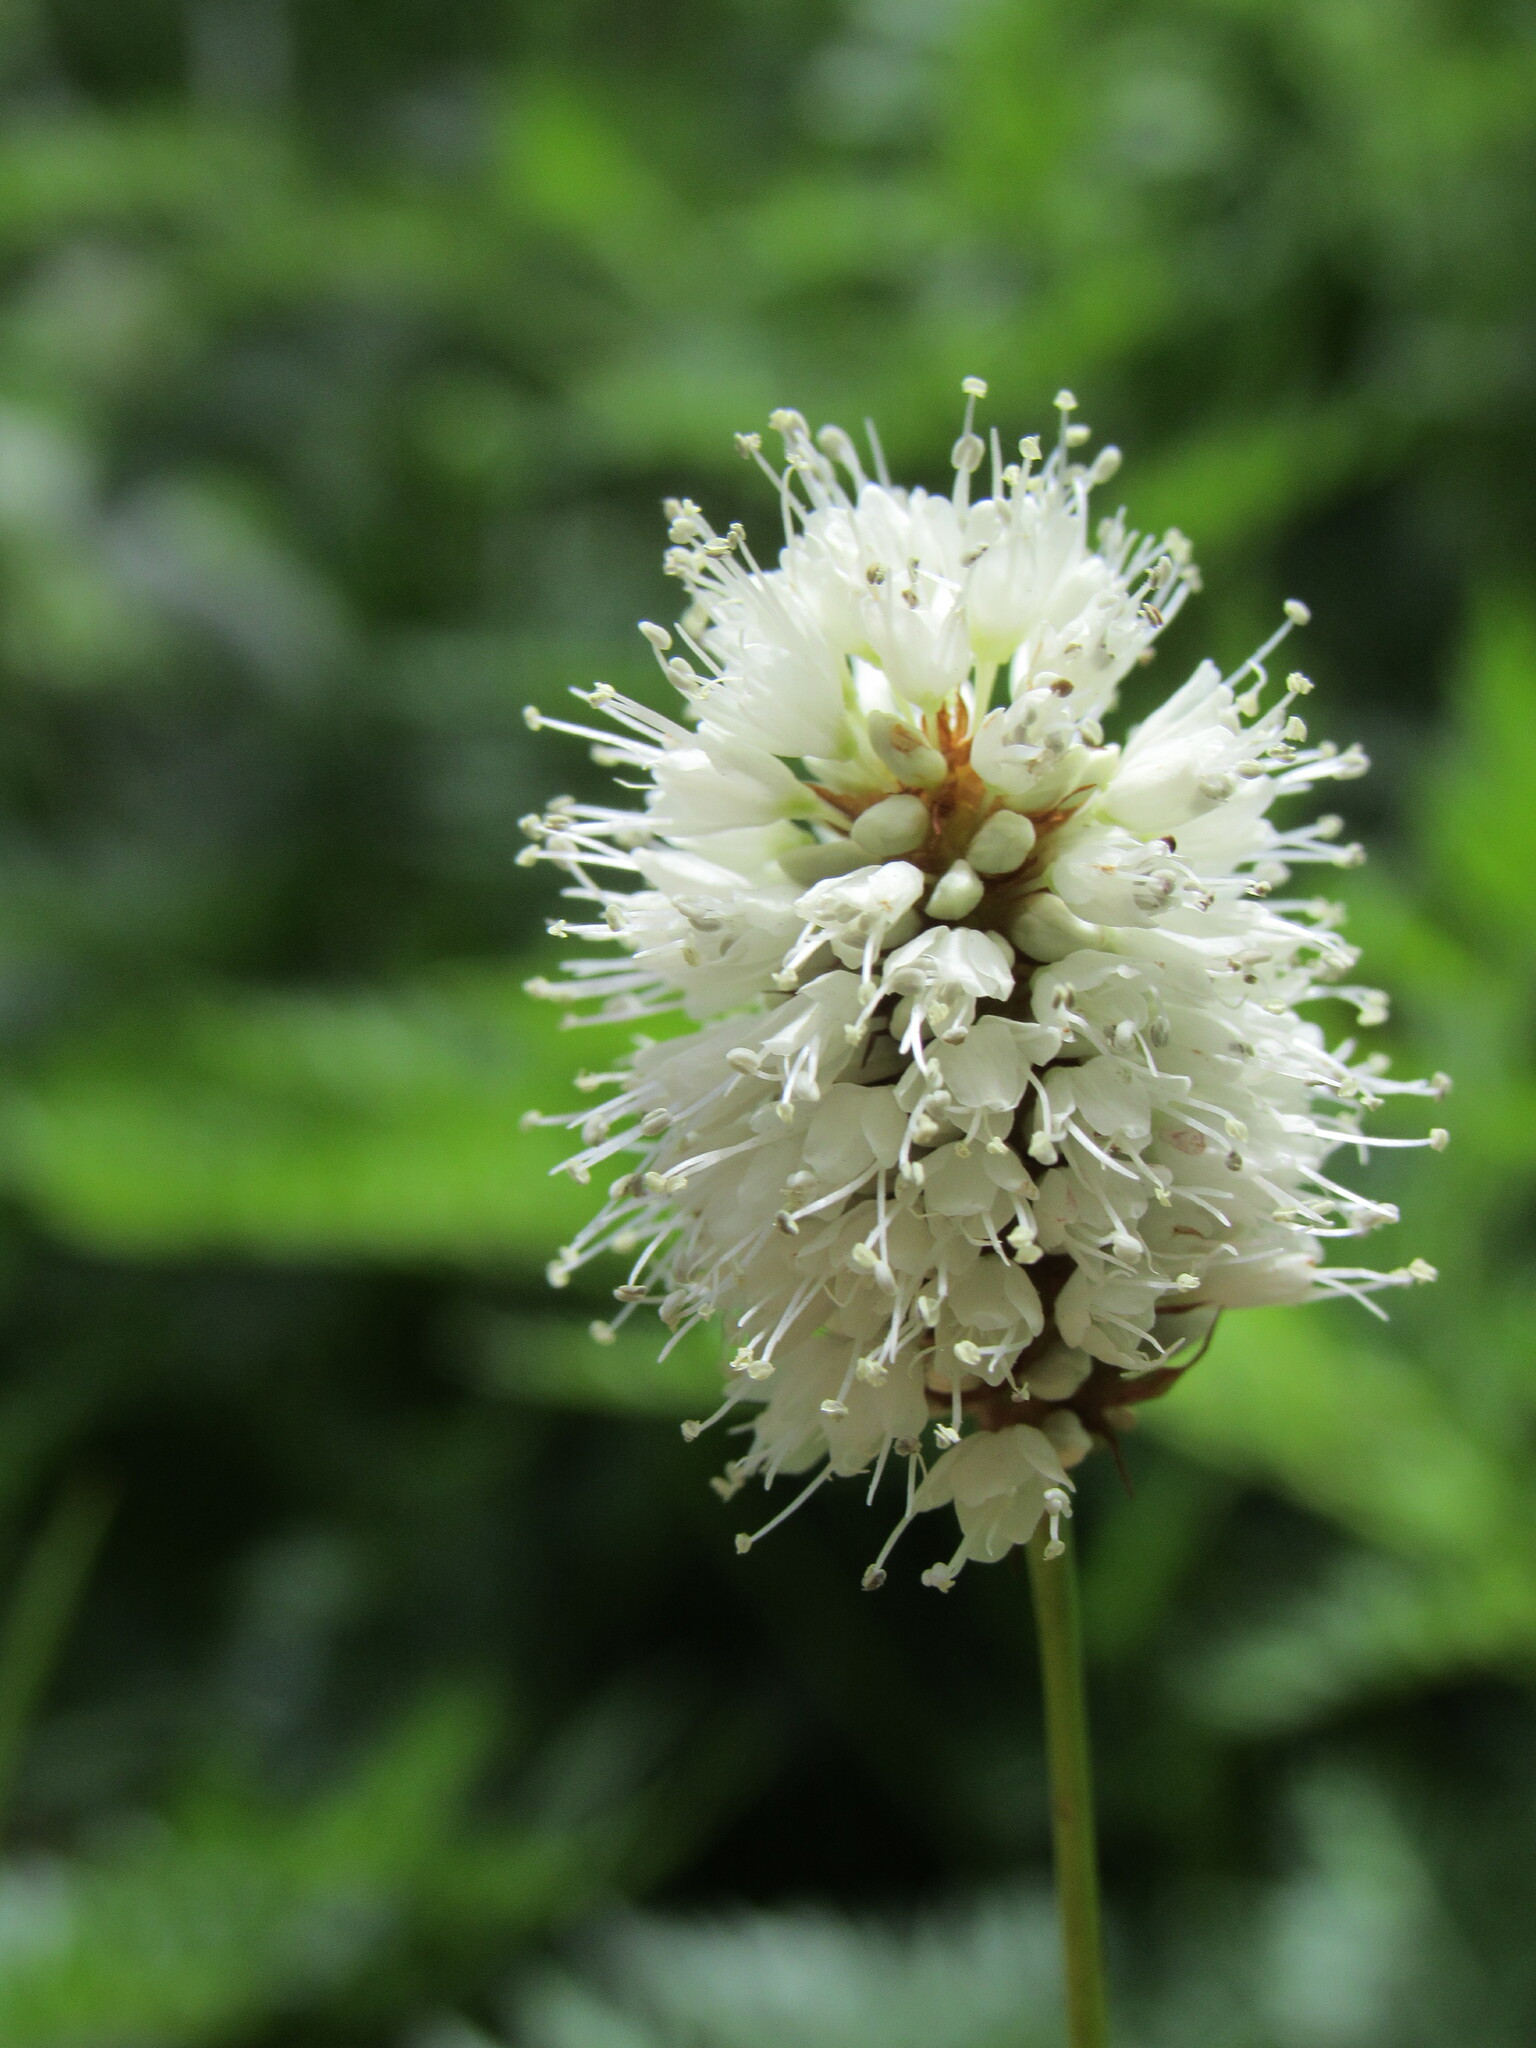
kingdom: Plantae
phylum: Tracheophyta
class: Magnoliopsida
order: Caryophyllales
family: Polygonaceae
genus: Bistorta
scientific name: Bistorta bistortoides
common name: American bistort
